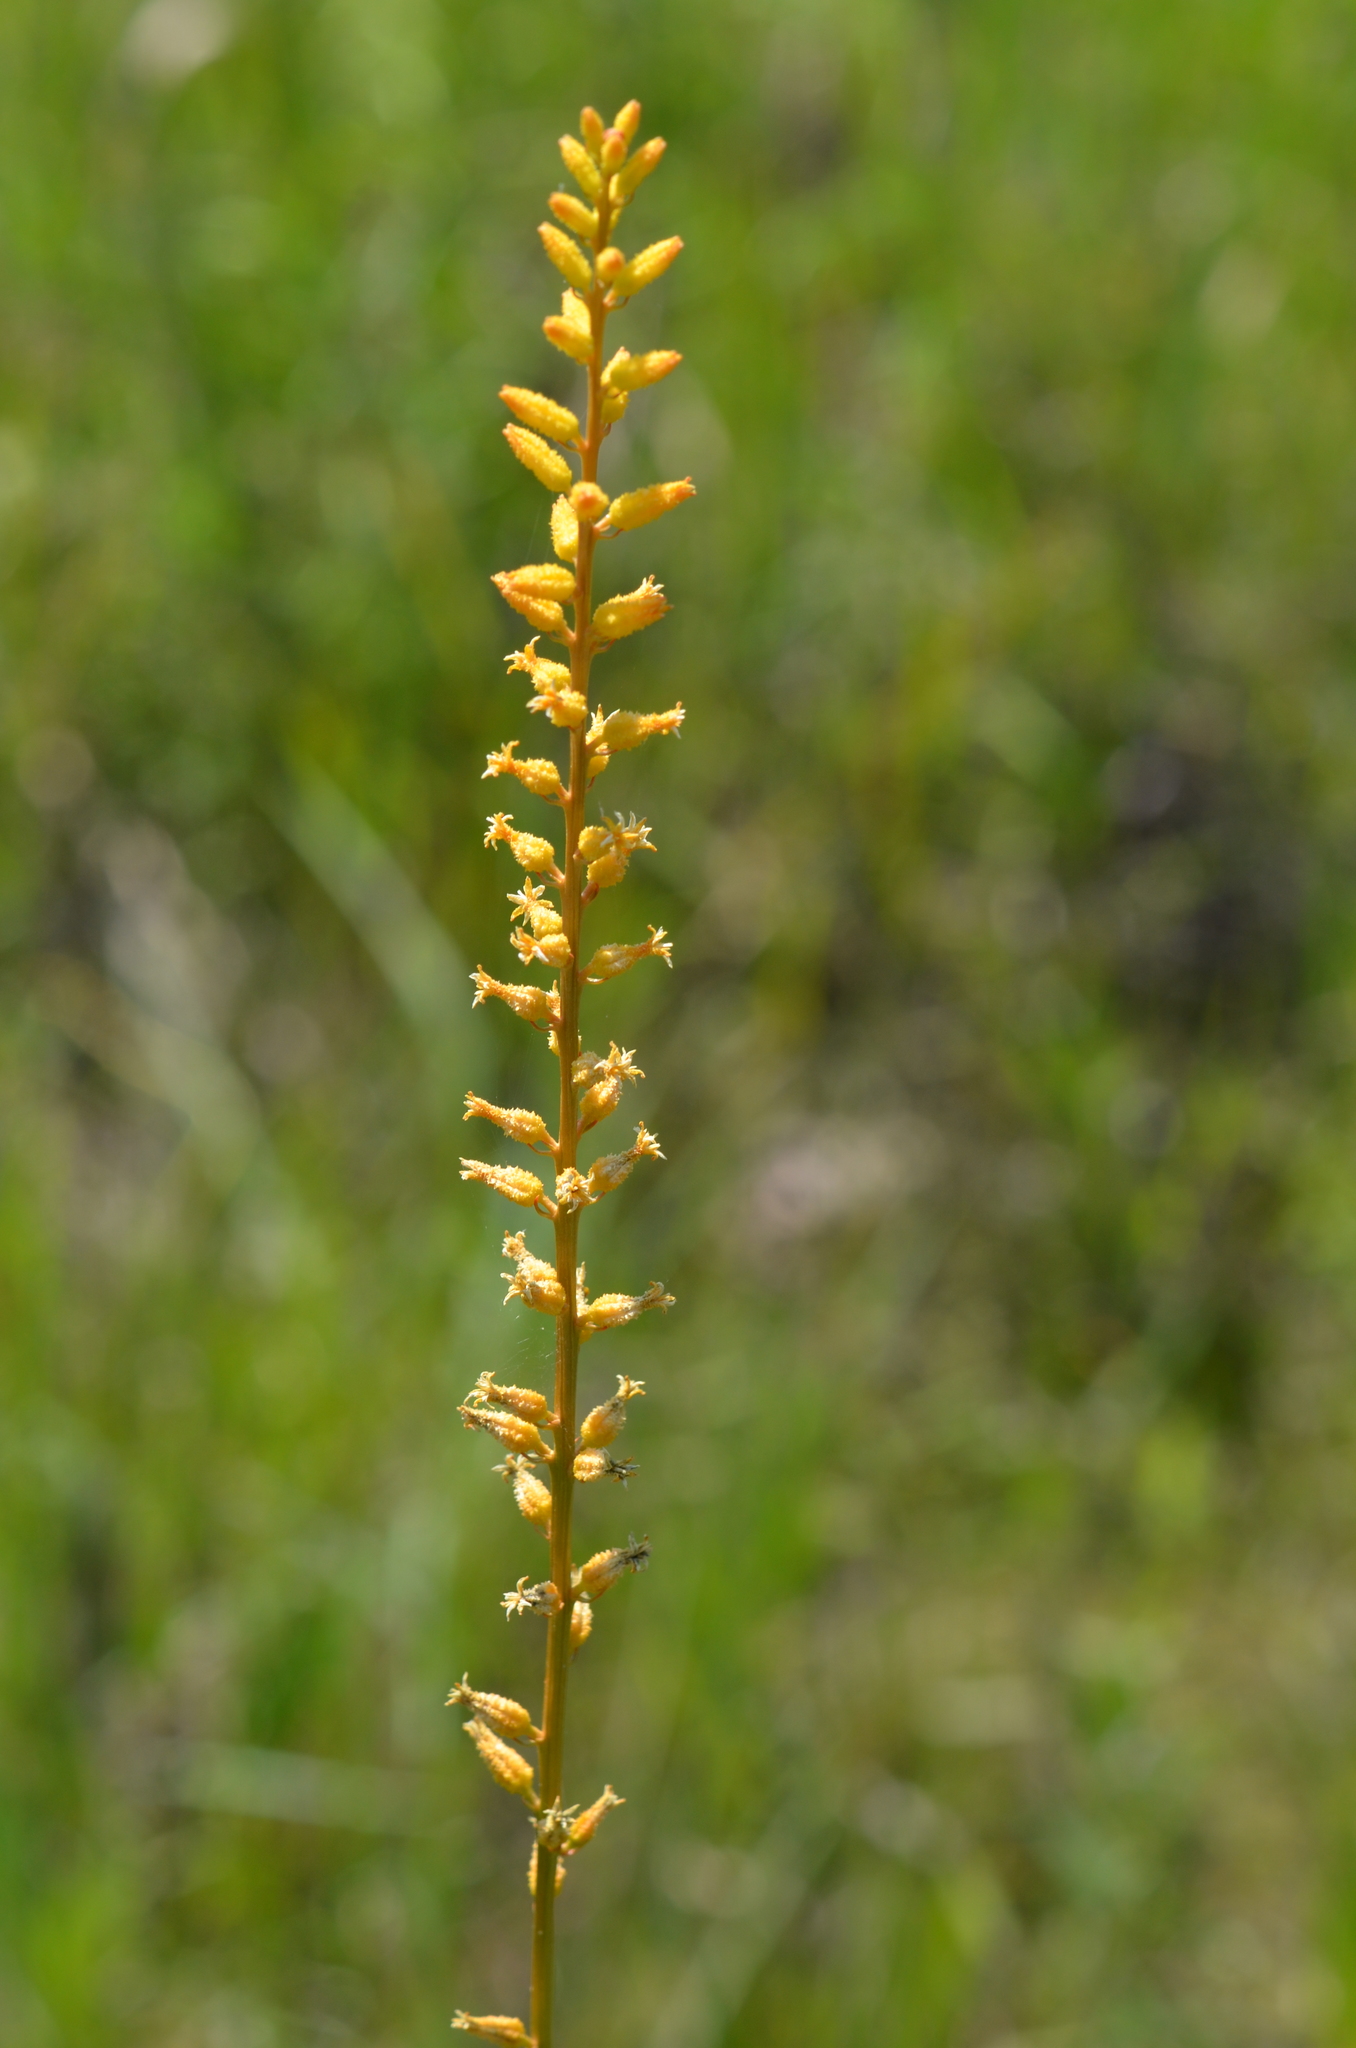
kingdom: Plantae
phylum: Tracheophyta
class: Liliopsida
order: Dioscoreales
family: Nartheciaceae
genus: Aletris
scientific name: Aletris lutea
